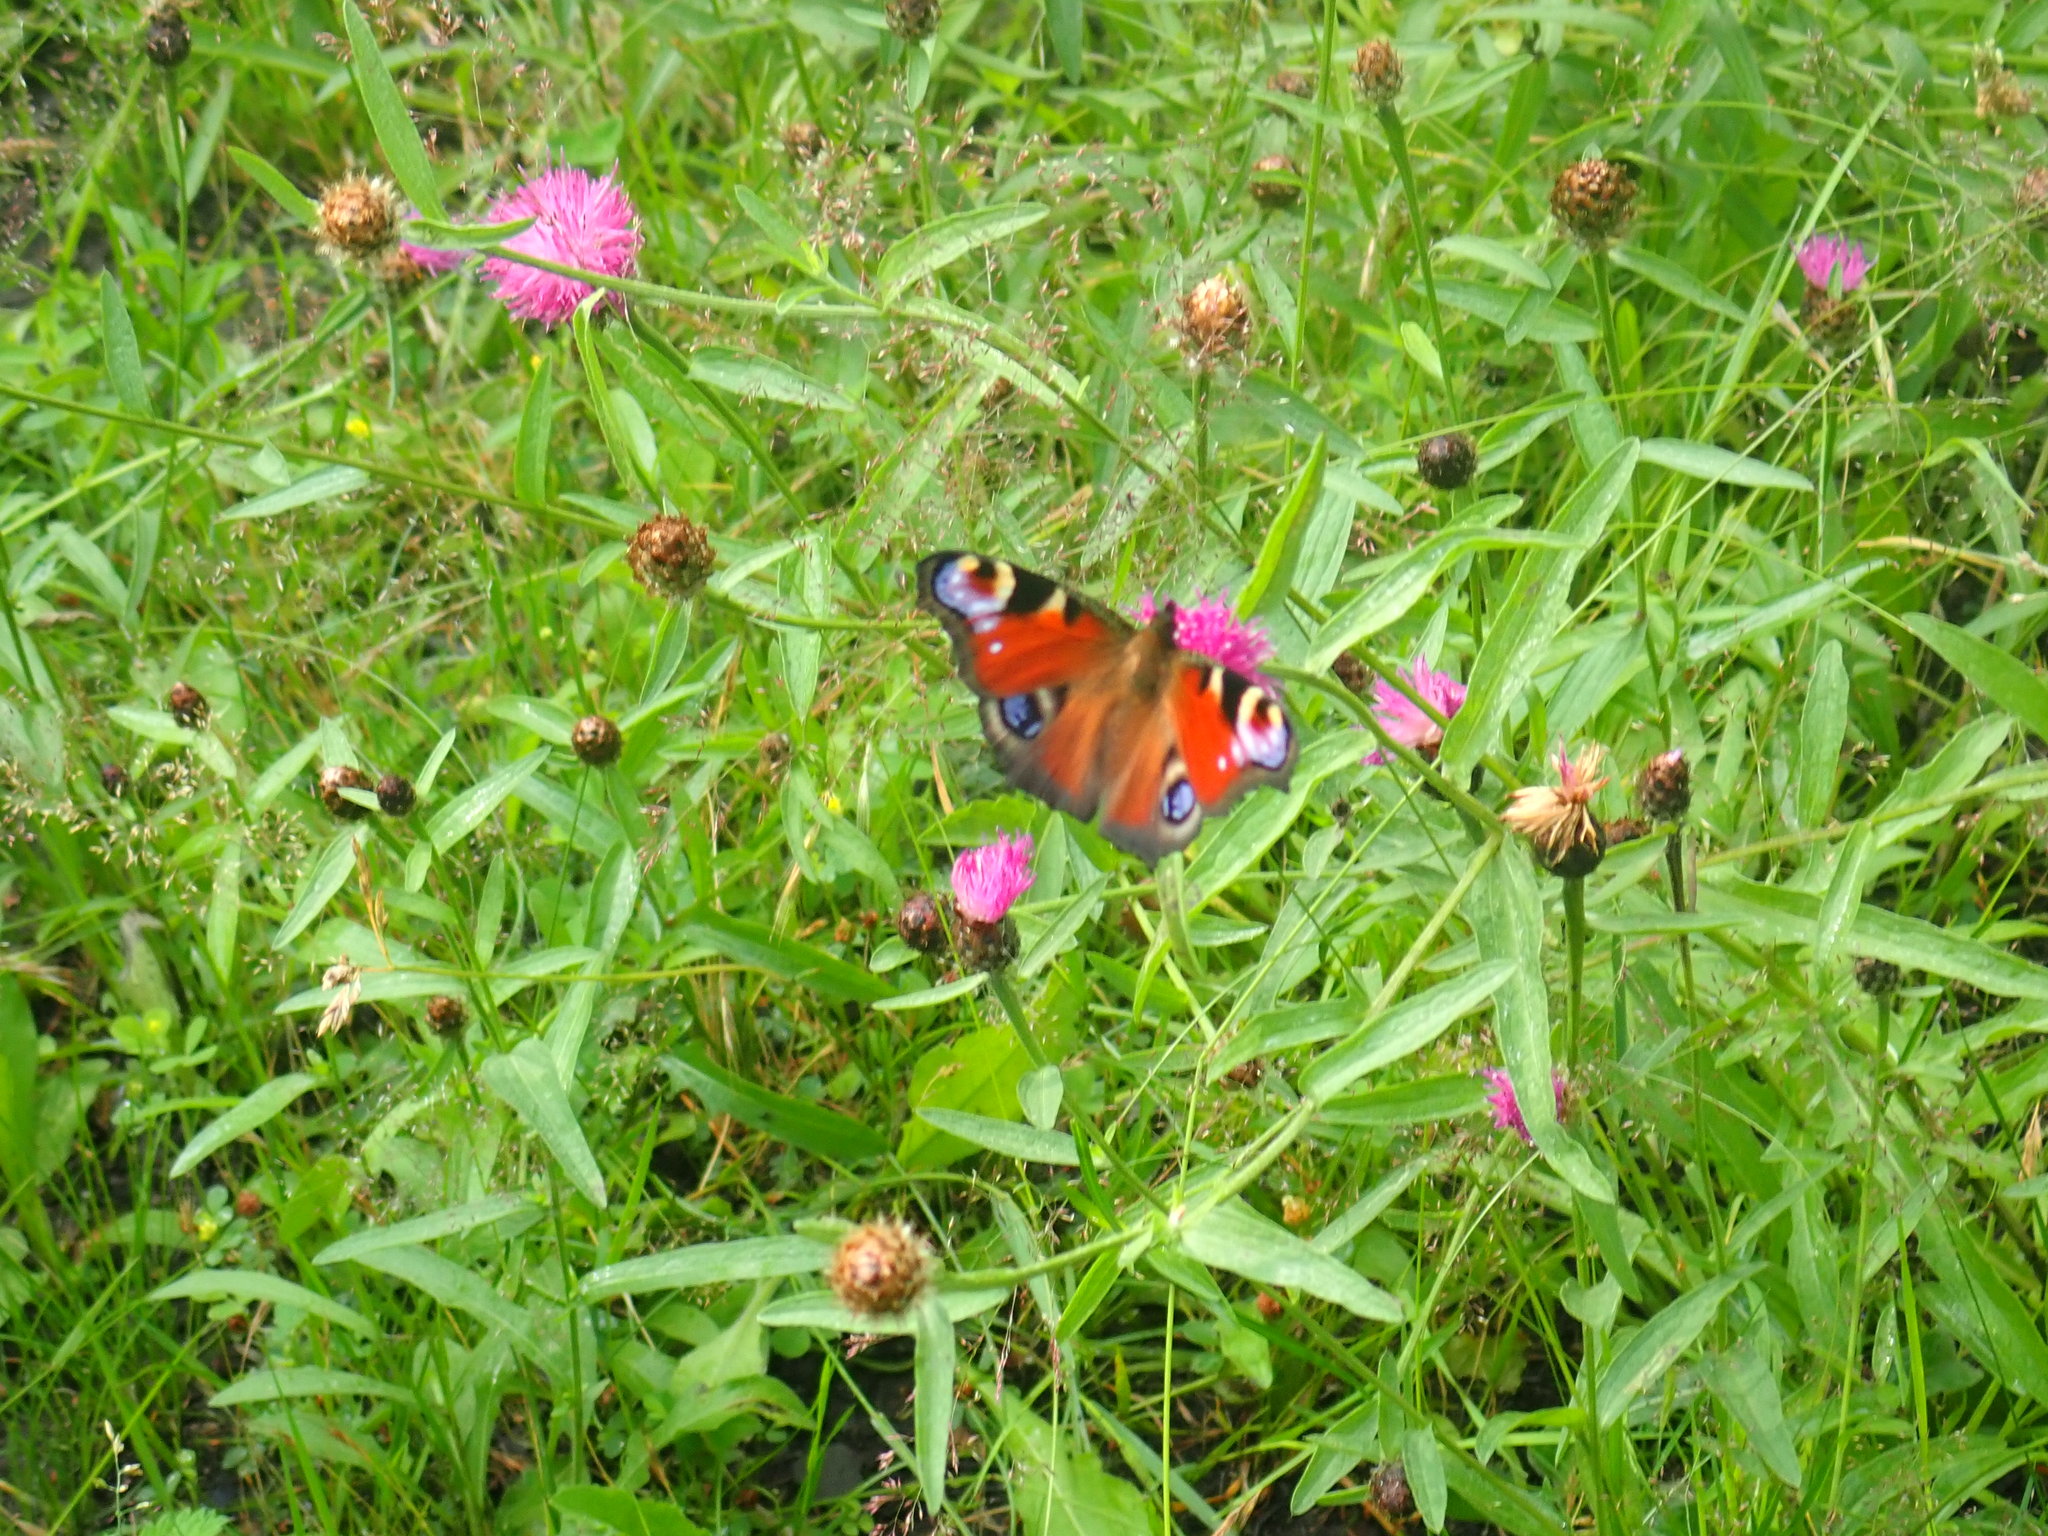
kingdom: Animalia
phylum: Arthropoda
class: Insecta
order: Lepidoptera
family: Nymphalidae
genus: Aglais
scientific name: Aglais io
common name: Peacock
